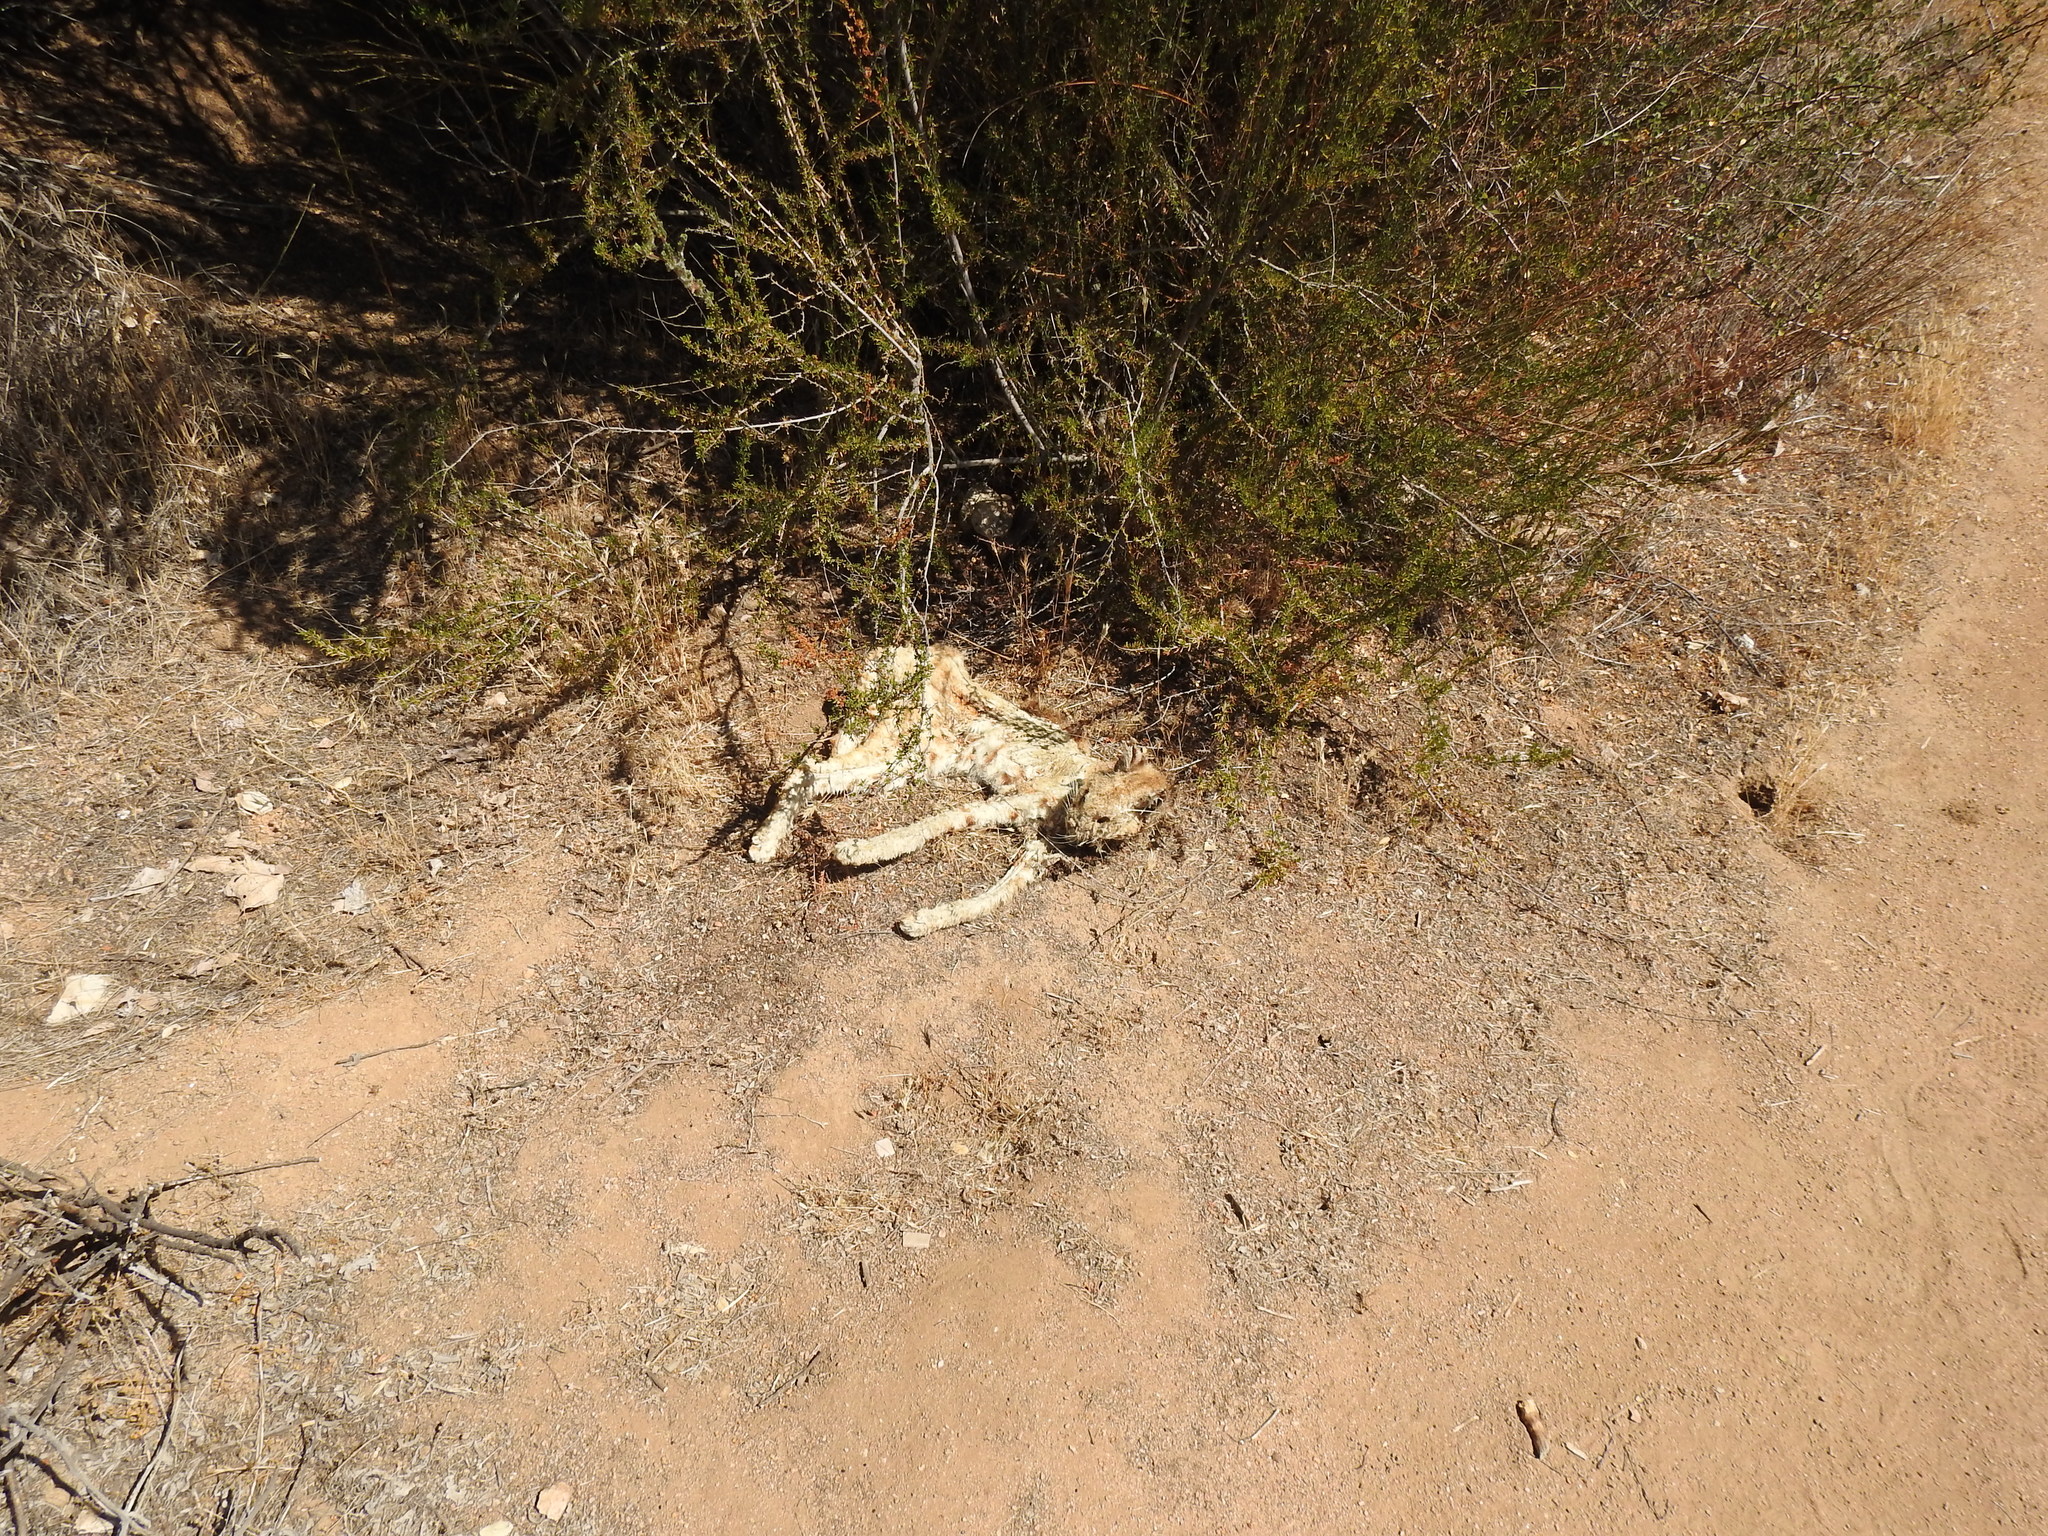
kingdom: Animalia
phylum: Chordata
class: Mammalia
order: Carnivora
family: Felidae
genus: Lynx
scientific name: Lynx rufus
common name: Bobcat
